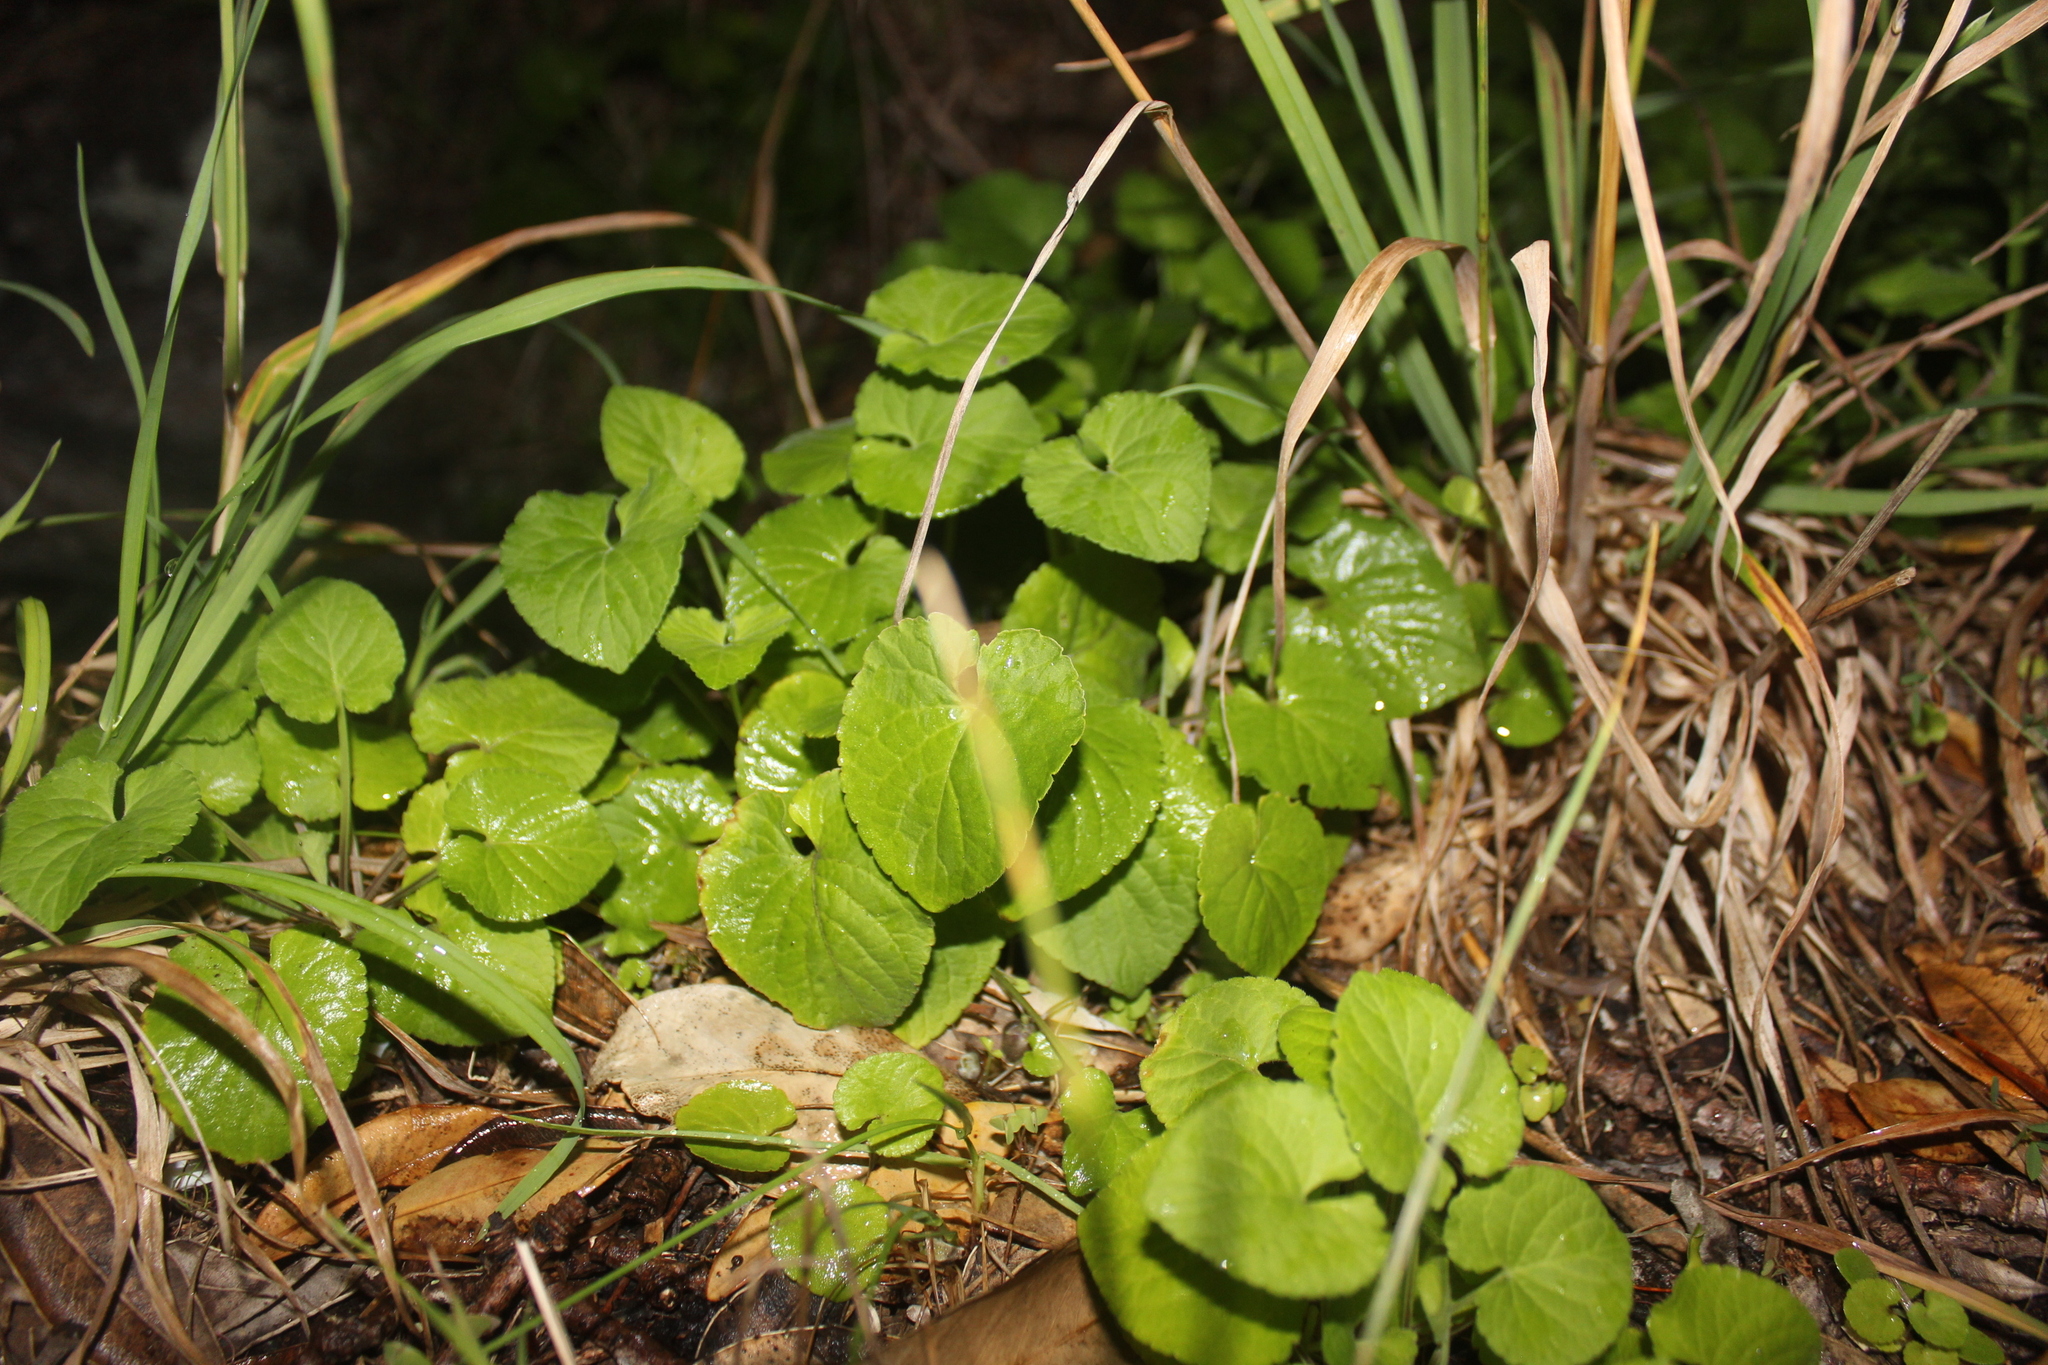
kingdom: Plantae
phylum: Tracheophyta
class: Magnoliopsida
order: Malpighiales
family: Violaceae
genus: Viola
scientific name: Viola odorata
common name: Sweet violet
